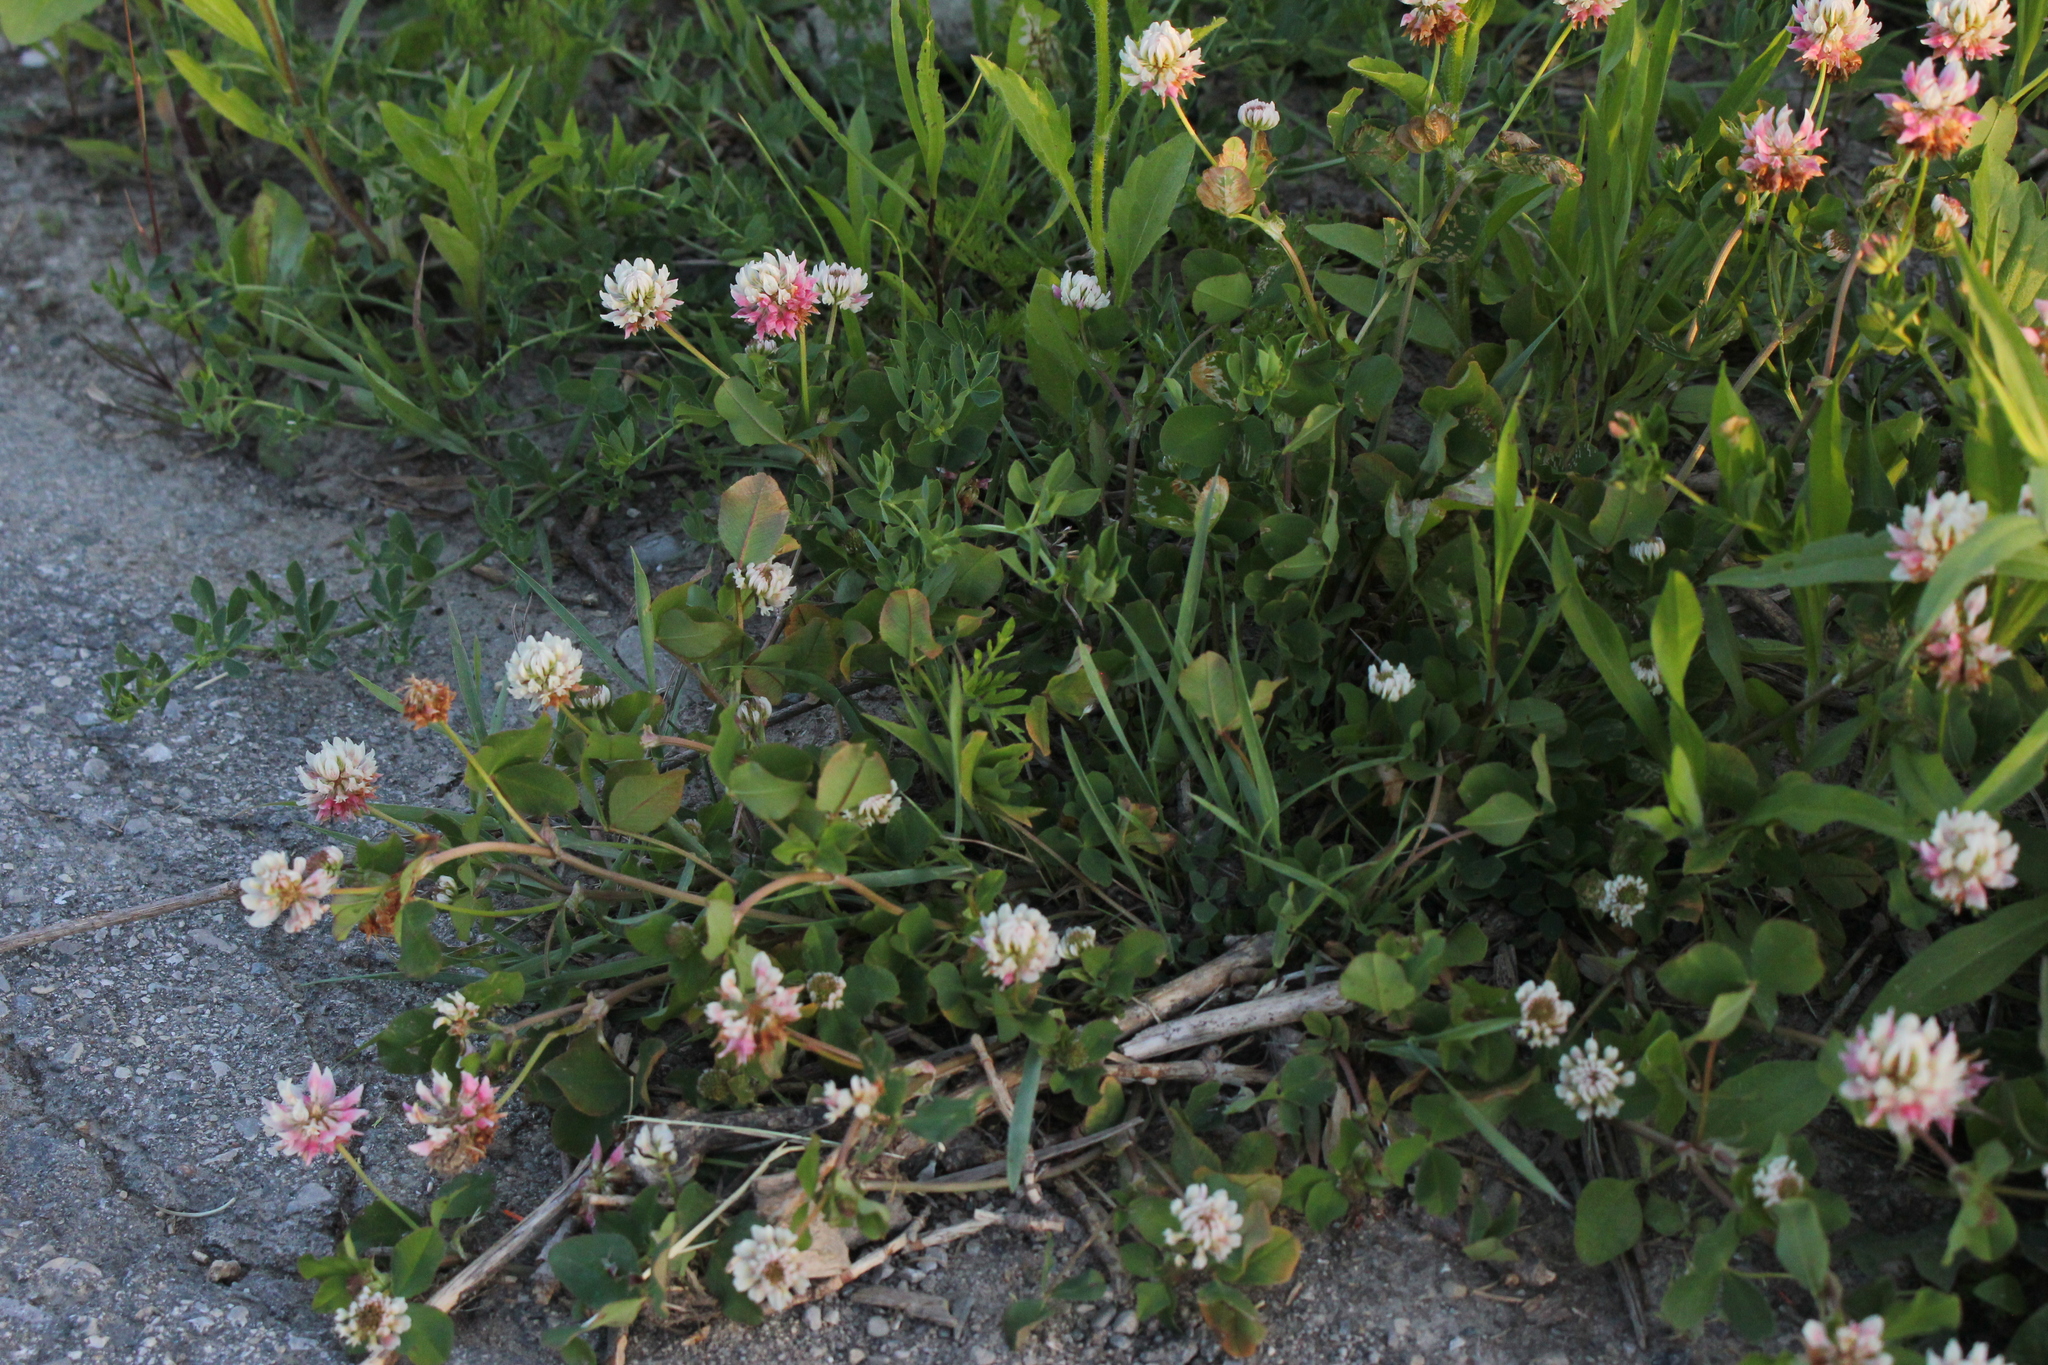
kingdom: Plantae
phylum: Tracheophyta
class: Magnoliopsida
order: Fabales
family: Fabaceae
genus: Trifolium
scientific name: Trifolium hybridum
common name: Alsike clover
